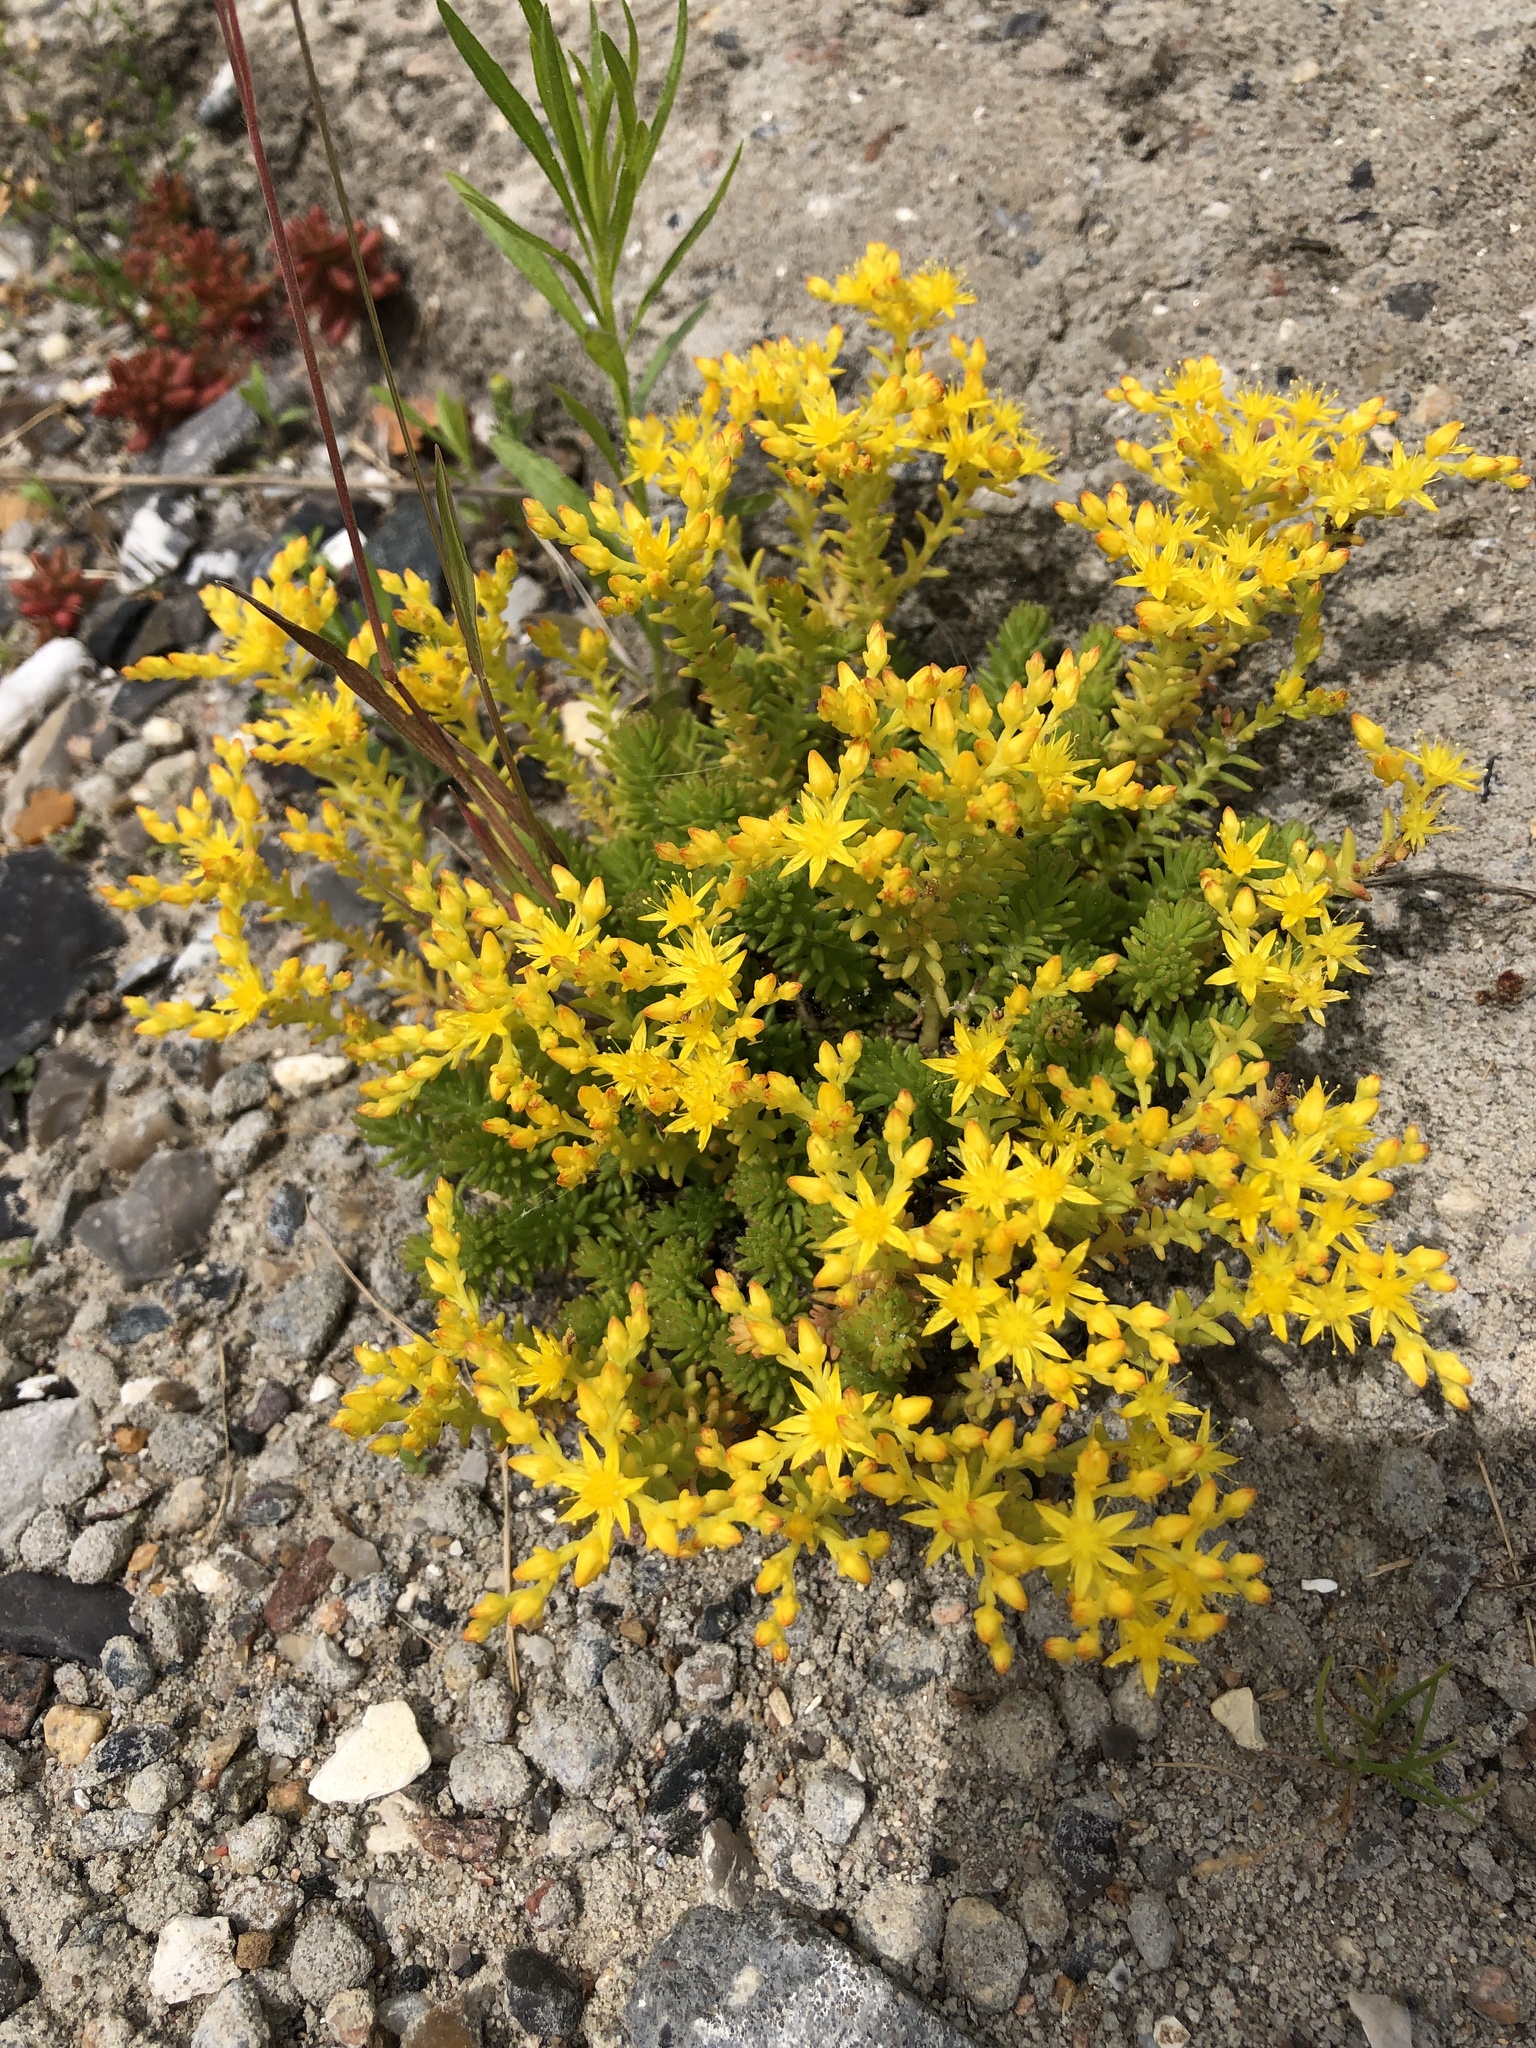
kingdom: Plantae
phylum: Tracheophyta
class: Magnoliopsida
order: Saxifragales
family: Crassulaceae
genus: Sedum
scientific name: Sedum sexangulare
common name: Tasteless stonecrop
